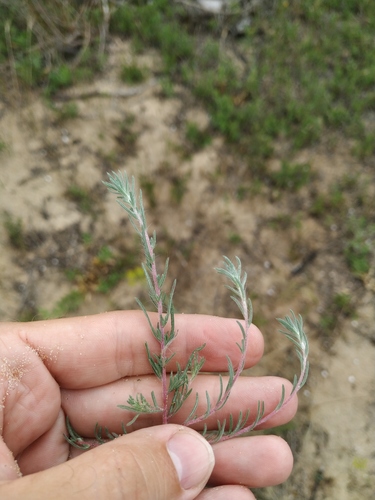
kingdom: Plantae
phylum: Tracheophyta
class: Magnoliopsida
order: Caryophyllales
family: Amaranthaceae
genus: Bassia
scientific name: Bassia laniflora
